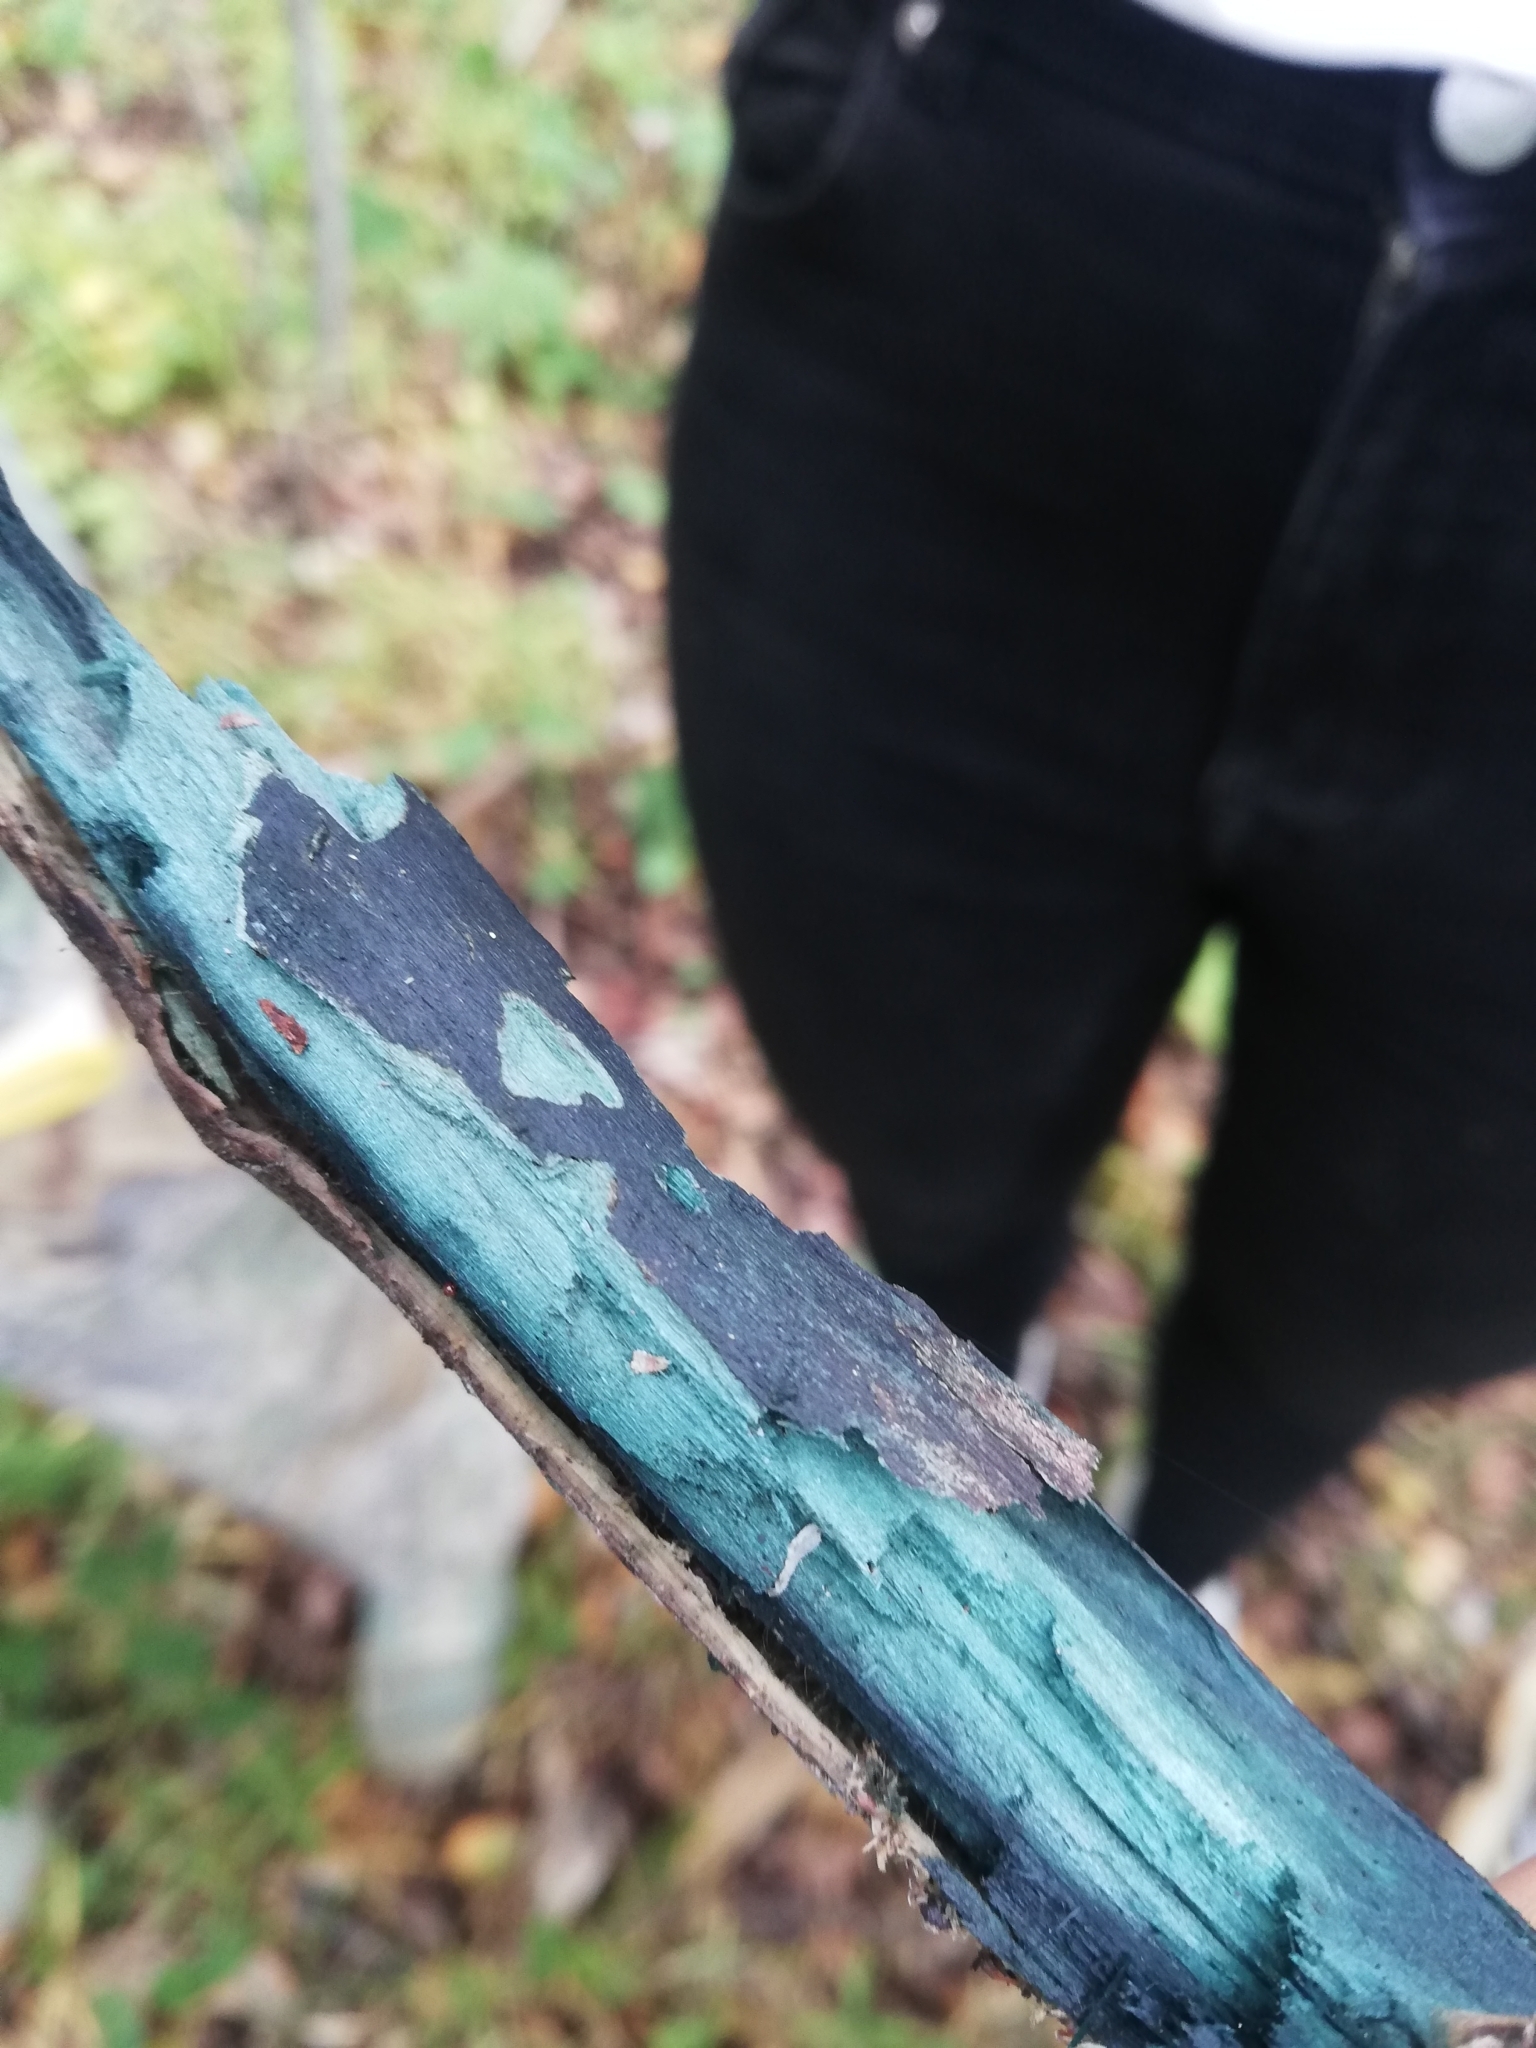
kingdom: Fungi
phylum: Ascomycota
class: Leotiomycetes
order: Helotiales
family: Chlorociboriaceae
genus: Chlorociboria
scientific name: Chlorociboria
